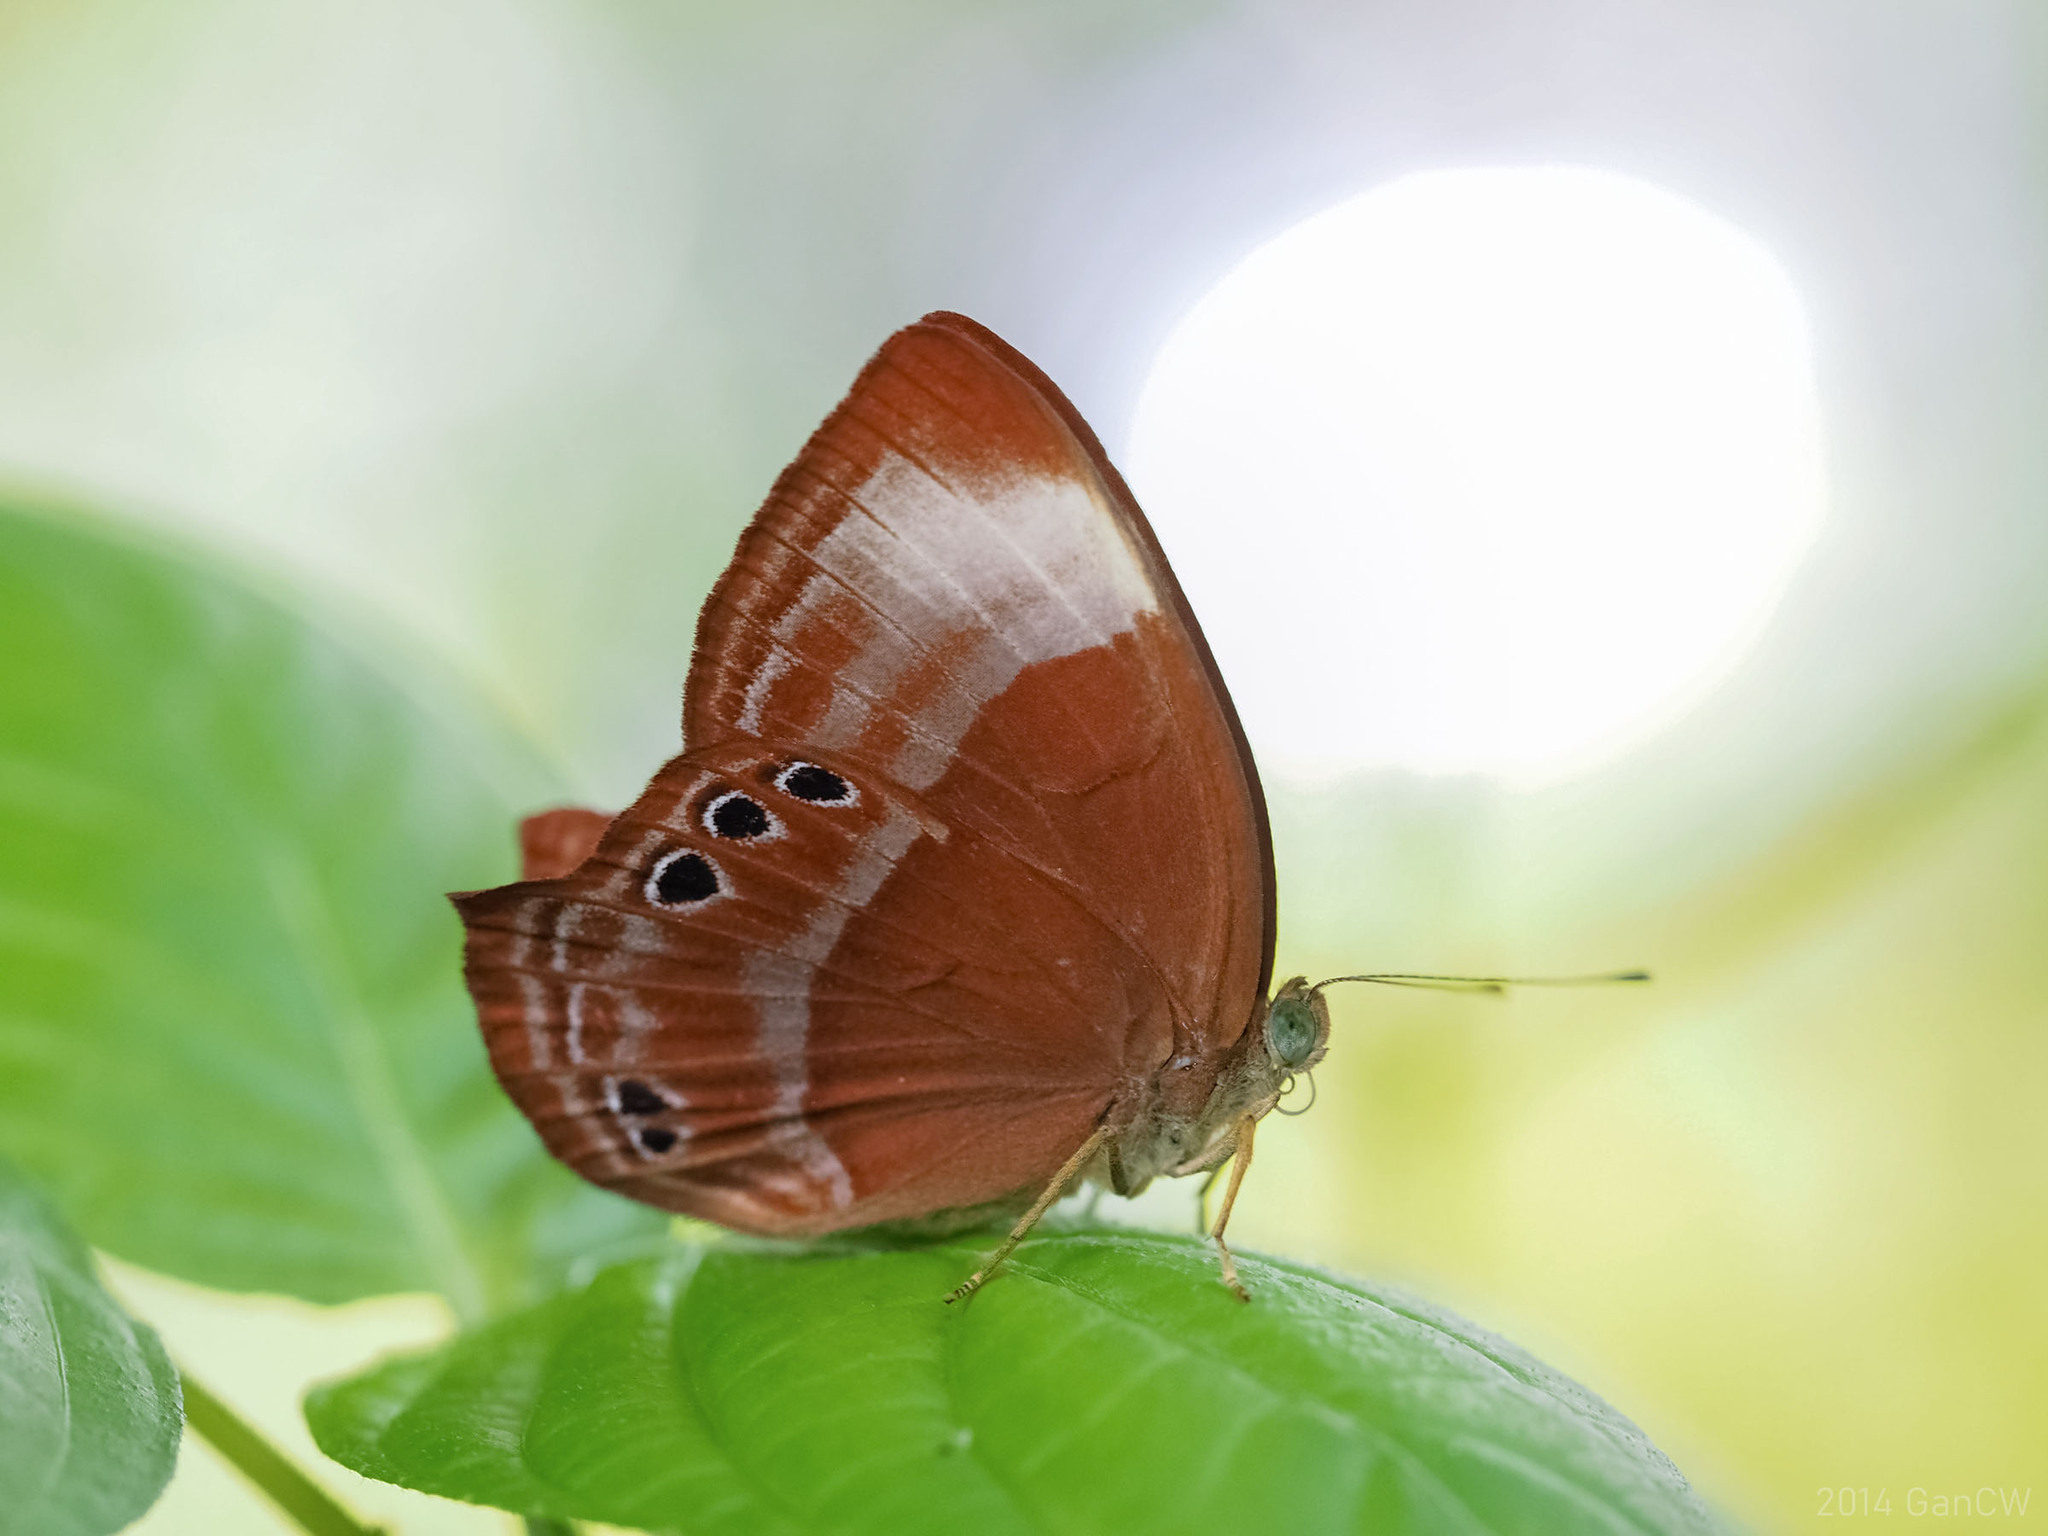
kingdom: Animalia
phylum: Arthropoda
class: Insecta
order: Lepidoptera
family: Lycaenidae
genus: Abisara
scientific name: Abisara saturata
